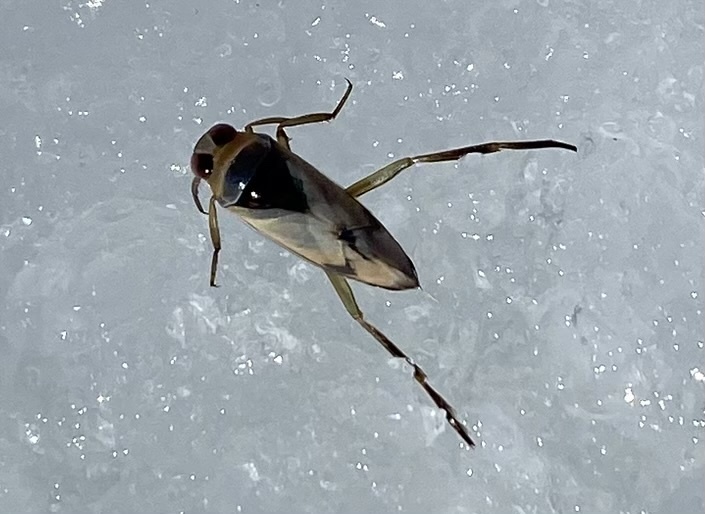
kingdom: Animalia
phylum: Arthropoda
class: Insecta
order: Hemiptera
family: Notonectidae
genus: Notonecta
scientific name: Notonecta undulata
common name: Grousewinged backswimmer
